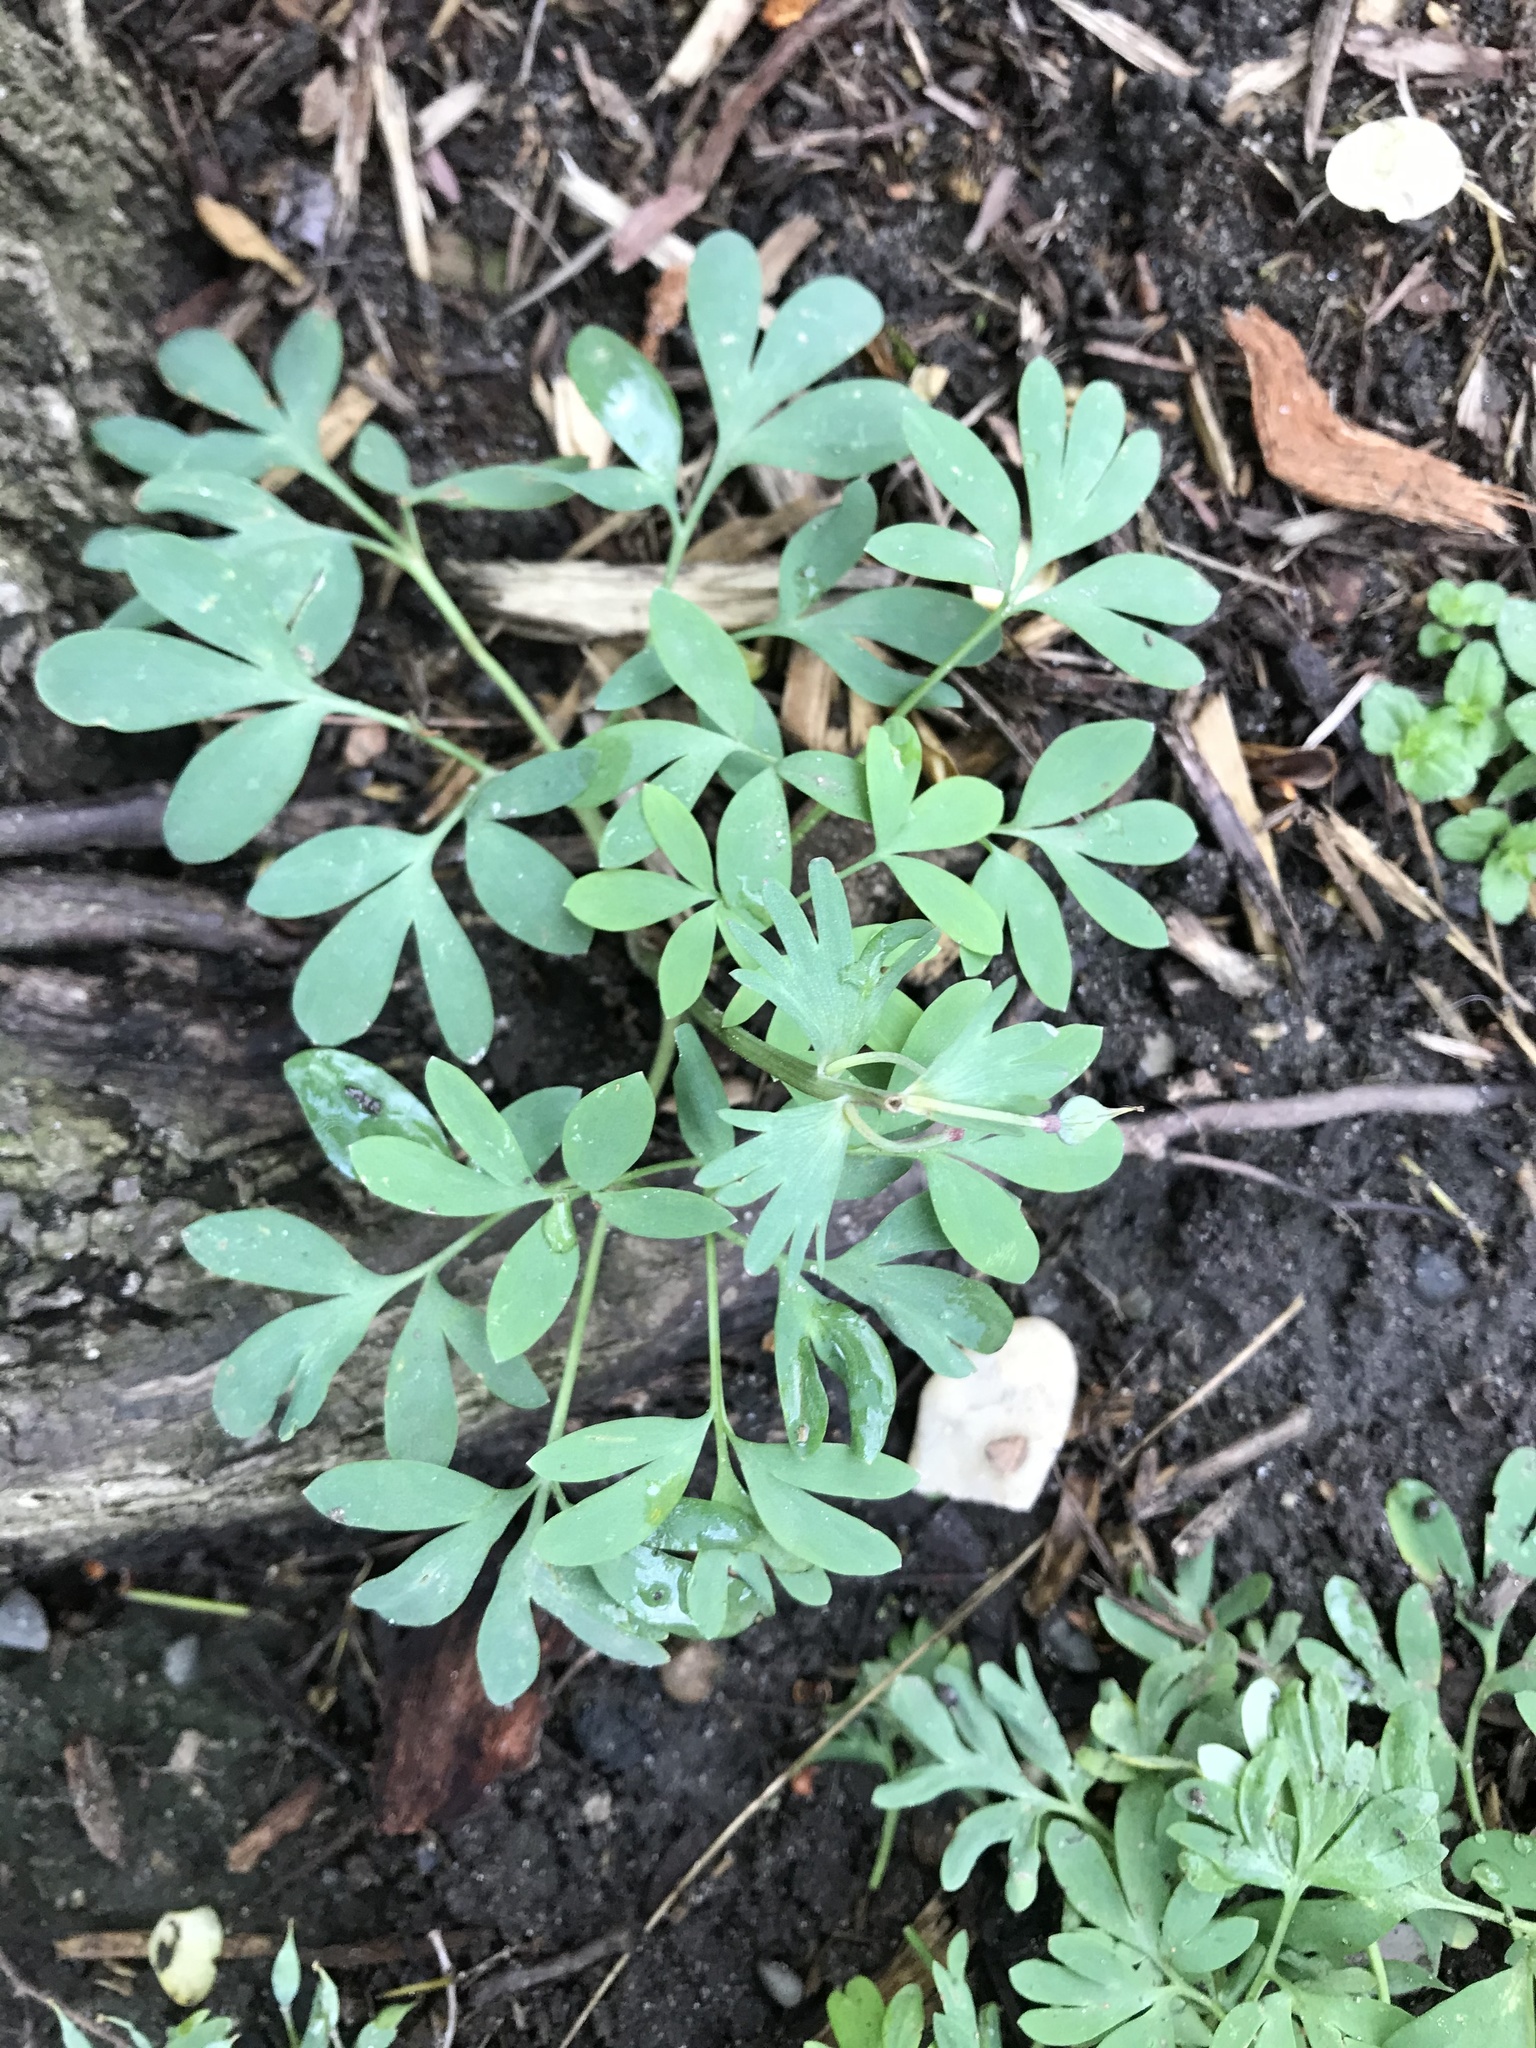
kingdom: Plantae
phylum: Tracheophyta
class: Magnoliopsida
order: Ranunculales
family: Papaveraceae
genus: Corydalis
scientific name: Corydalis solida
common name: Bird-in-a-bush
